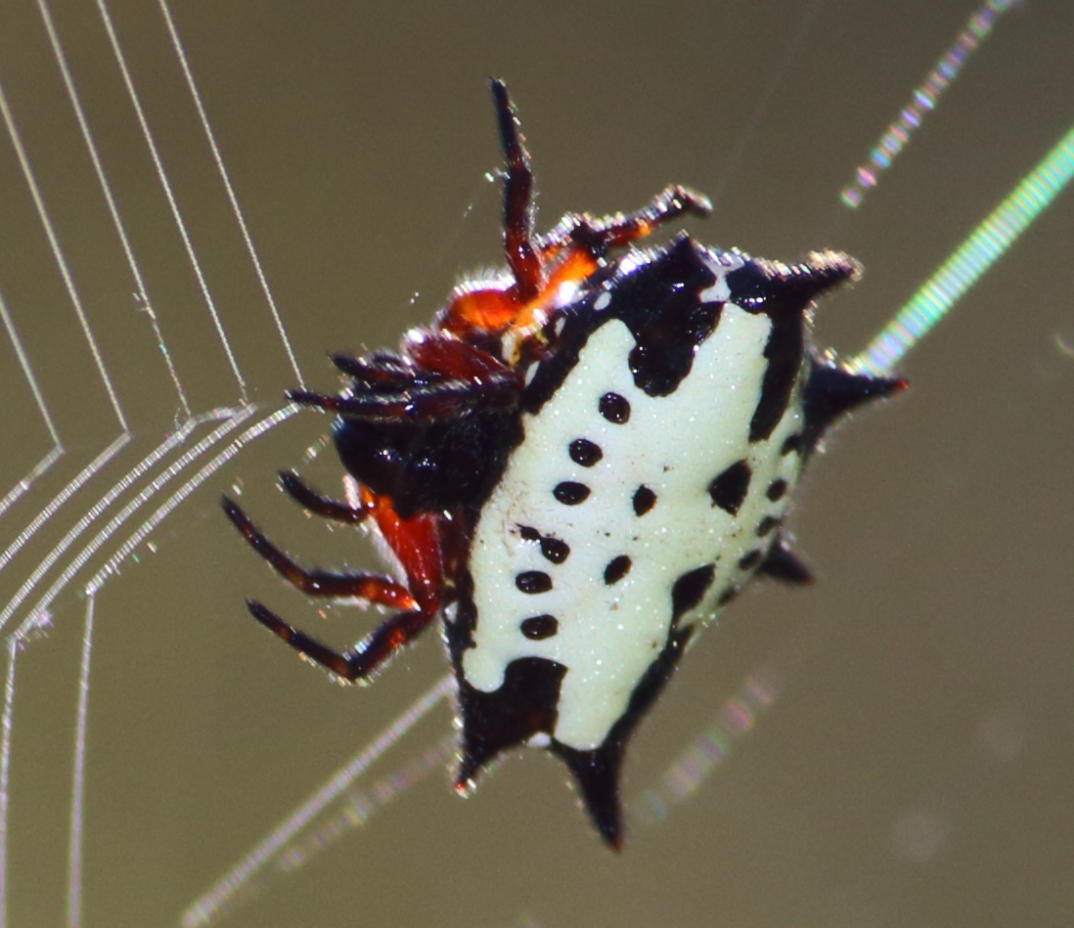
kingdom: Animalia
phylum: Arthropoda
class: Arachnida
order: Araneae
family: Araneidae
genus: Gasteracantha
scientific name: Gasteracantha sanguinolenta
